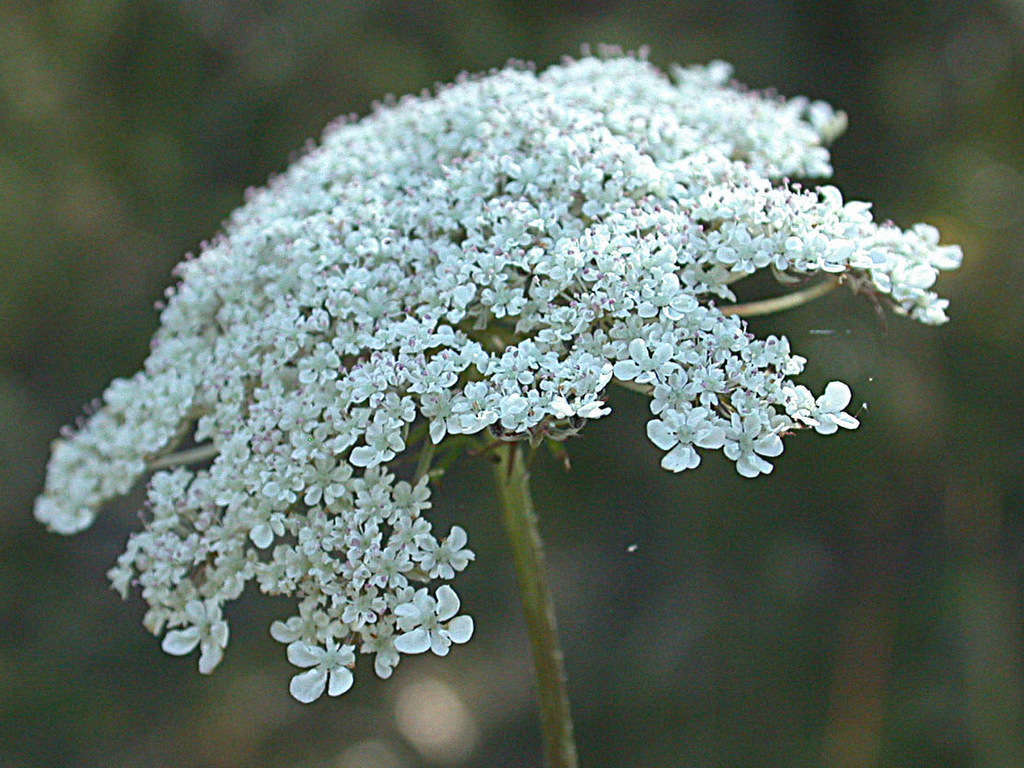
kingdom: Plantae
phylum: Tracheophyta
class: Magnoliopsida
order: Apiales
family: Apiaceae
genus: Daucus
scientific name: Daucus carota
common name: Wild carrot
